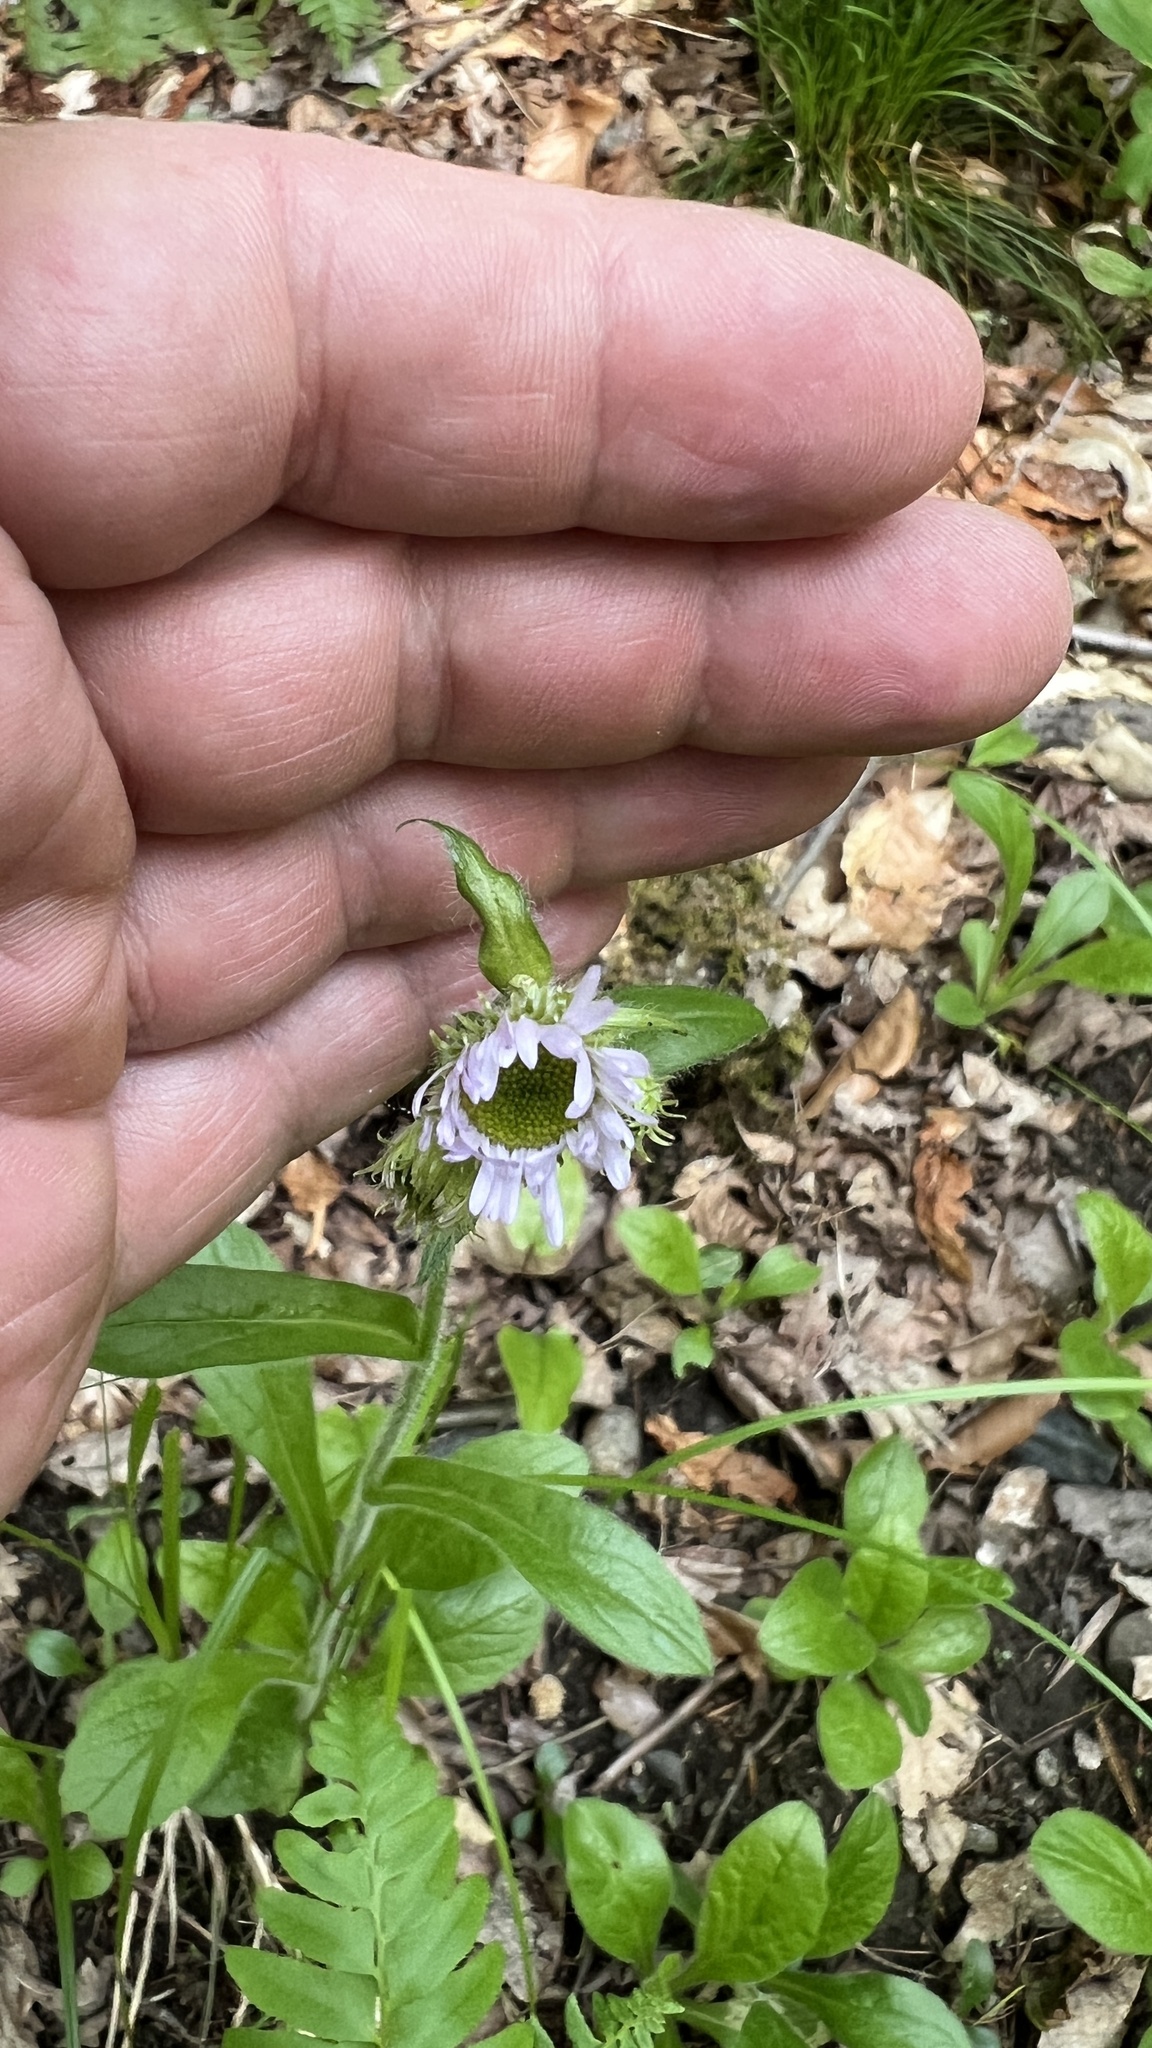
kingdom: Plantae
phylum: Tracheophyta
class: Magnoliopsida
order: Asterales
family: Asteraceae
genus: Erigeron
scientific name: Erigeron pulchellus
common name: Hairy fleabane
